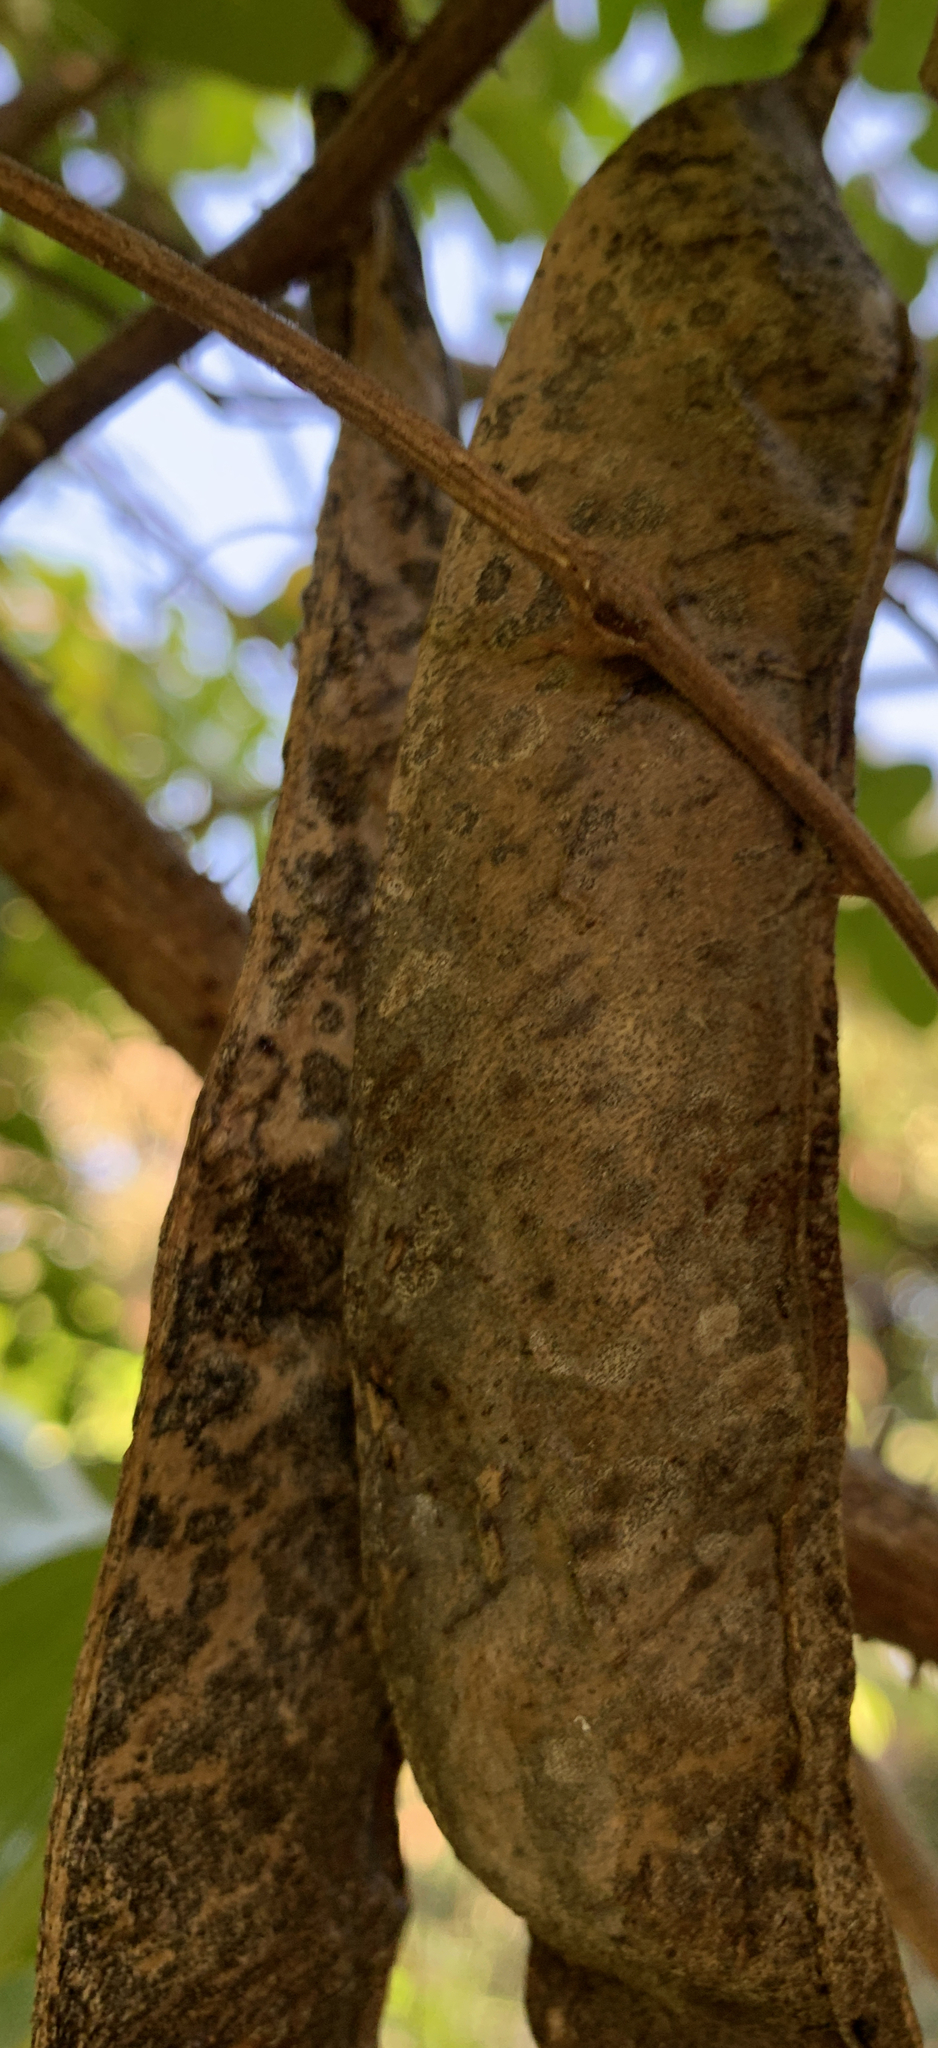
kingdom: Plantae
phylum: Tracheophyta
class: Magnoliopsida
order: Fabales
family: Fabaceae
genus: Canavalia
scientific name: Canavalia rosea
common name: Beach-bean
